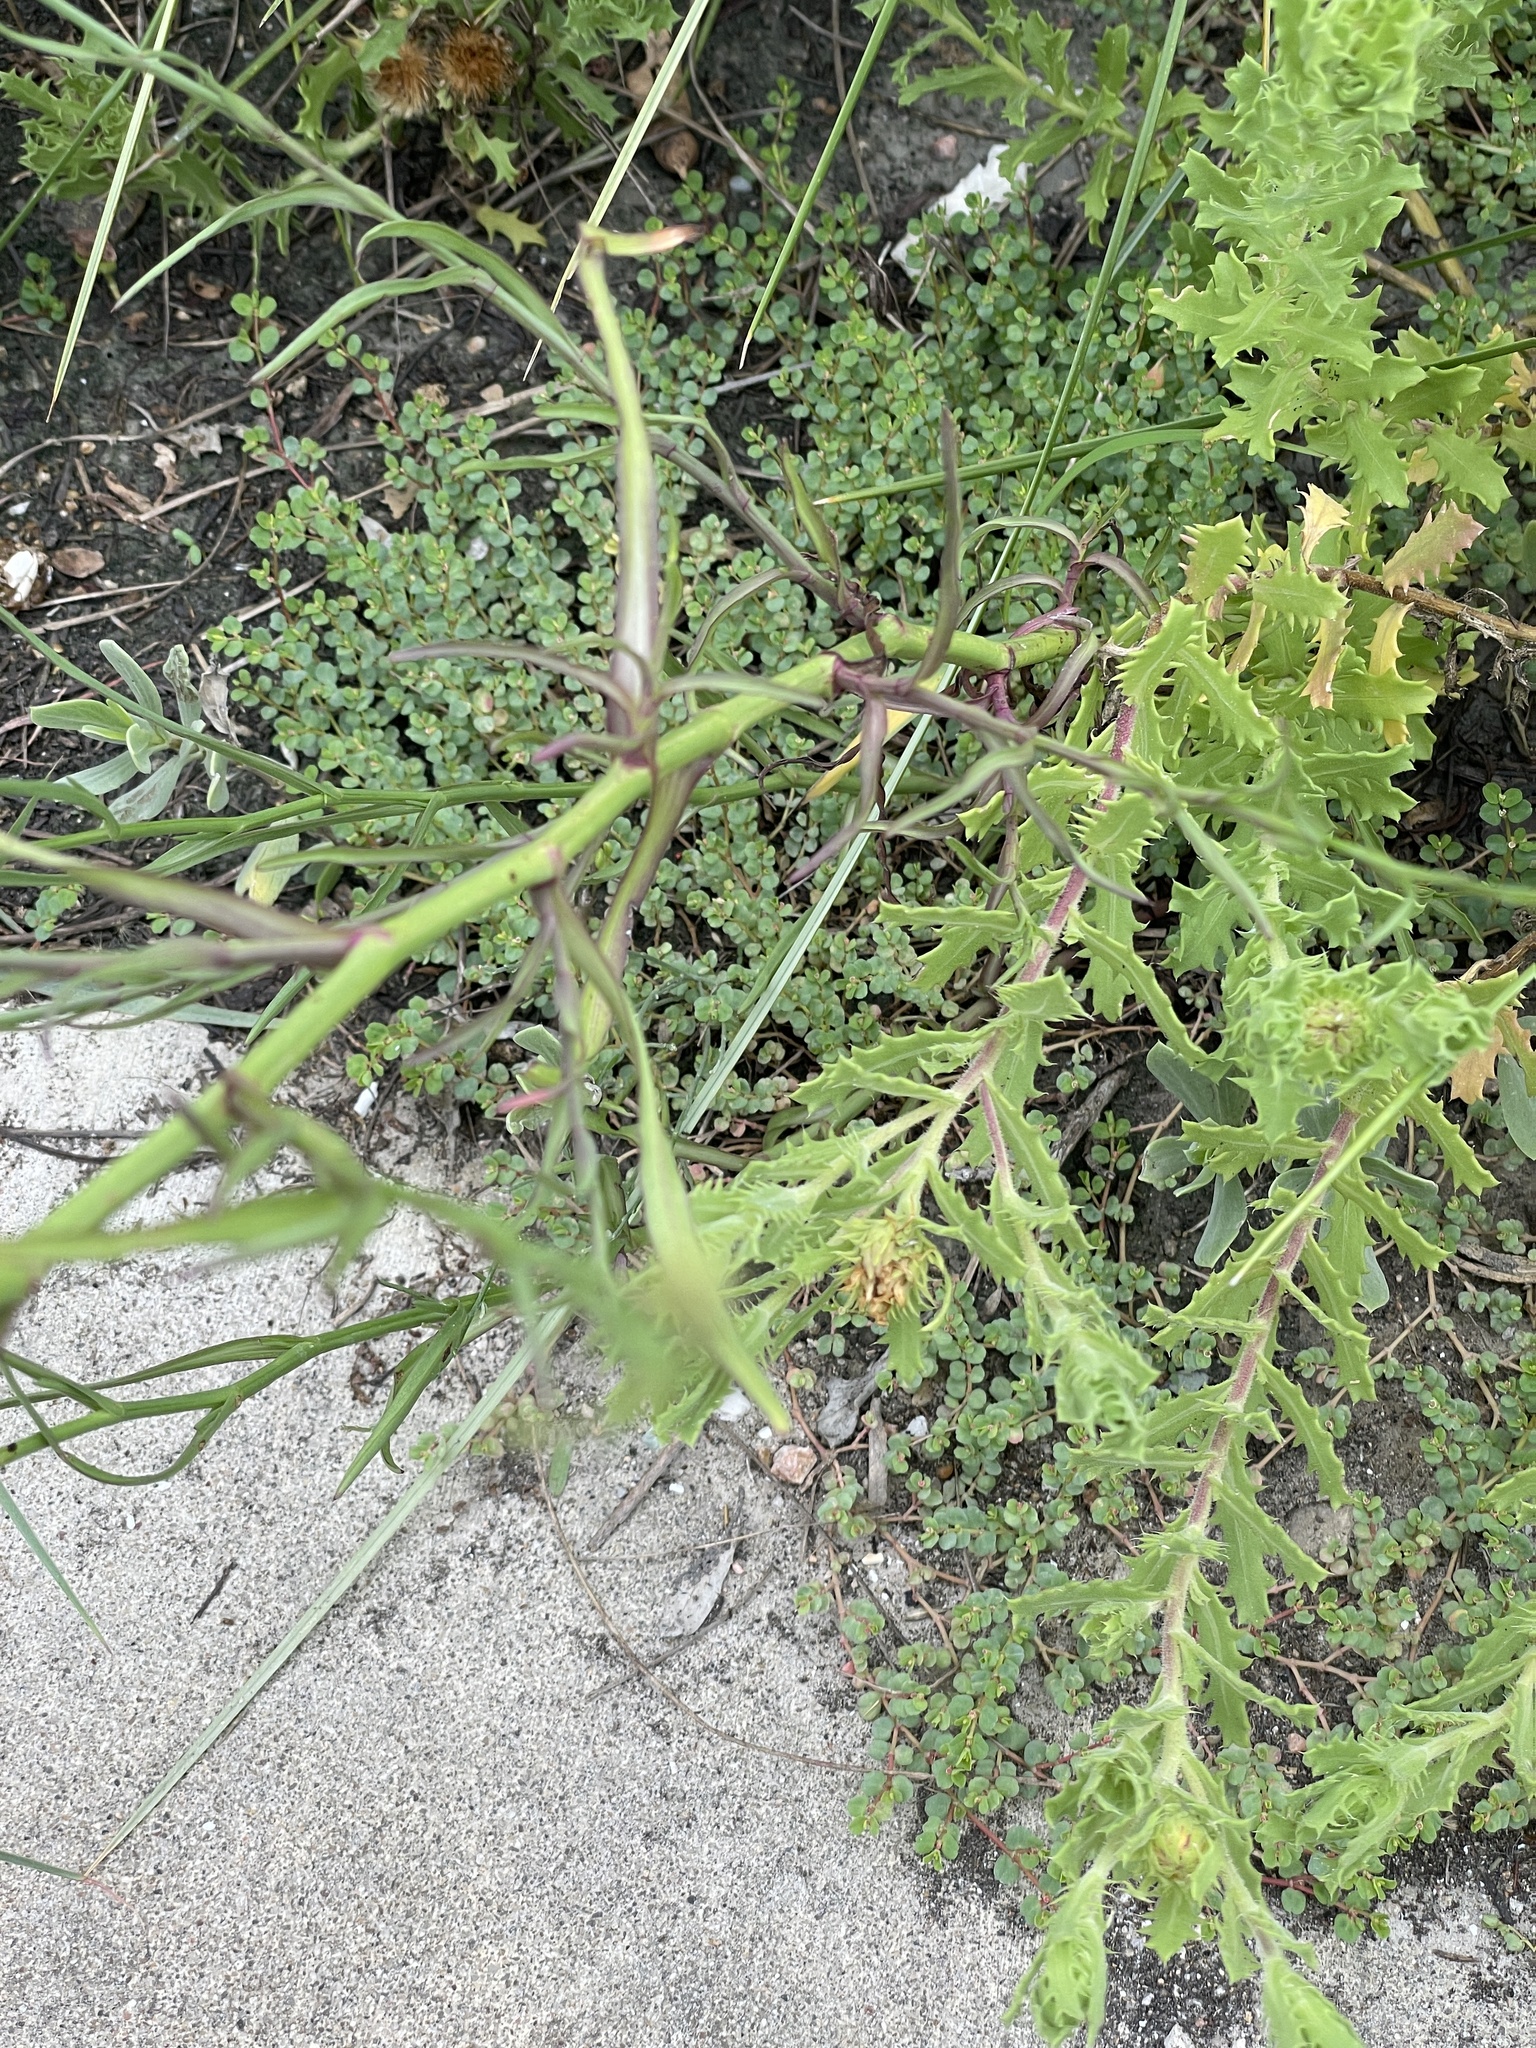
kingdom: Plantae
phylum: Tracheophyta
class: Magnoliopsida
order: Asterales
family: Asteraceae
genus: Symphyotrichum
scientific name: Symphyotrichum divaricatum
